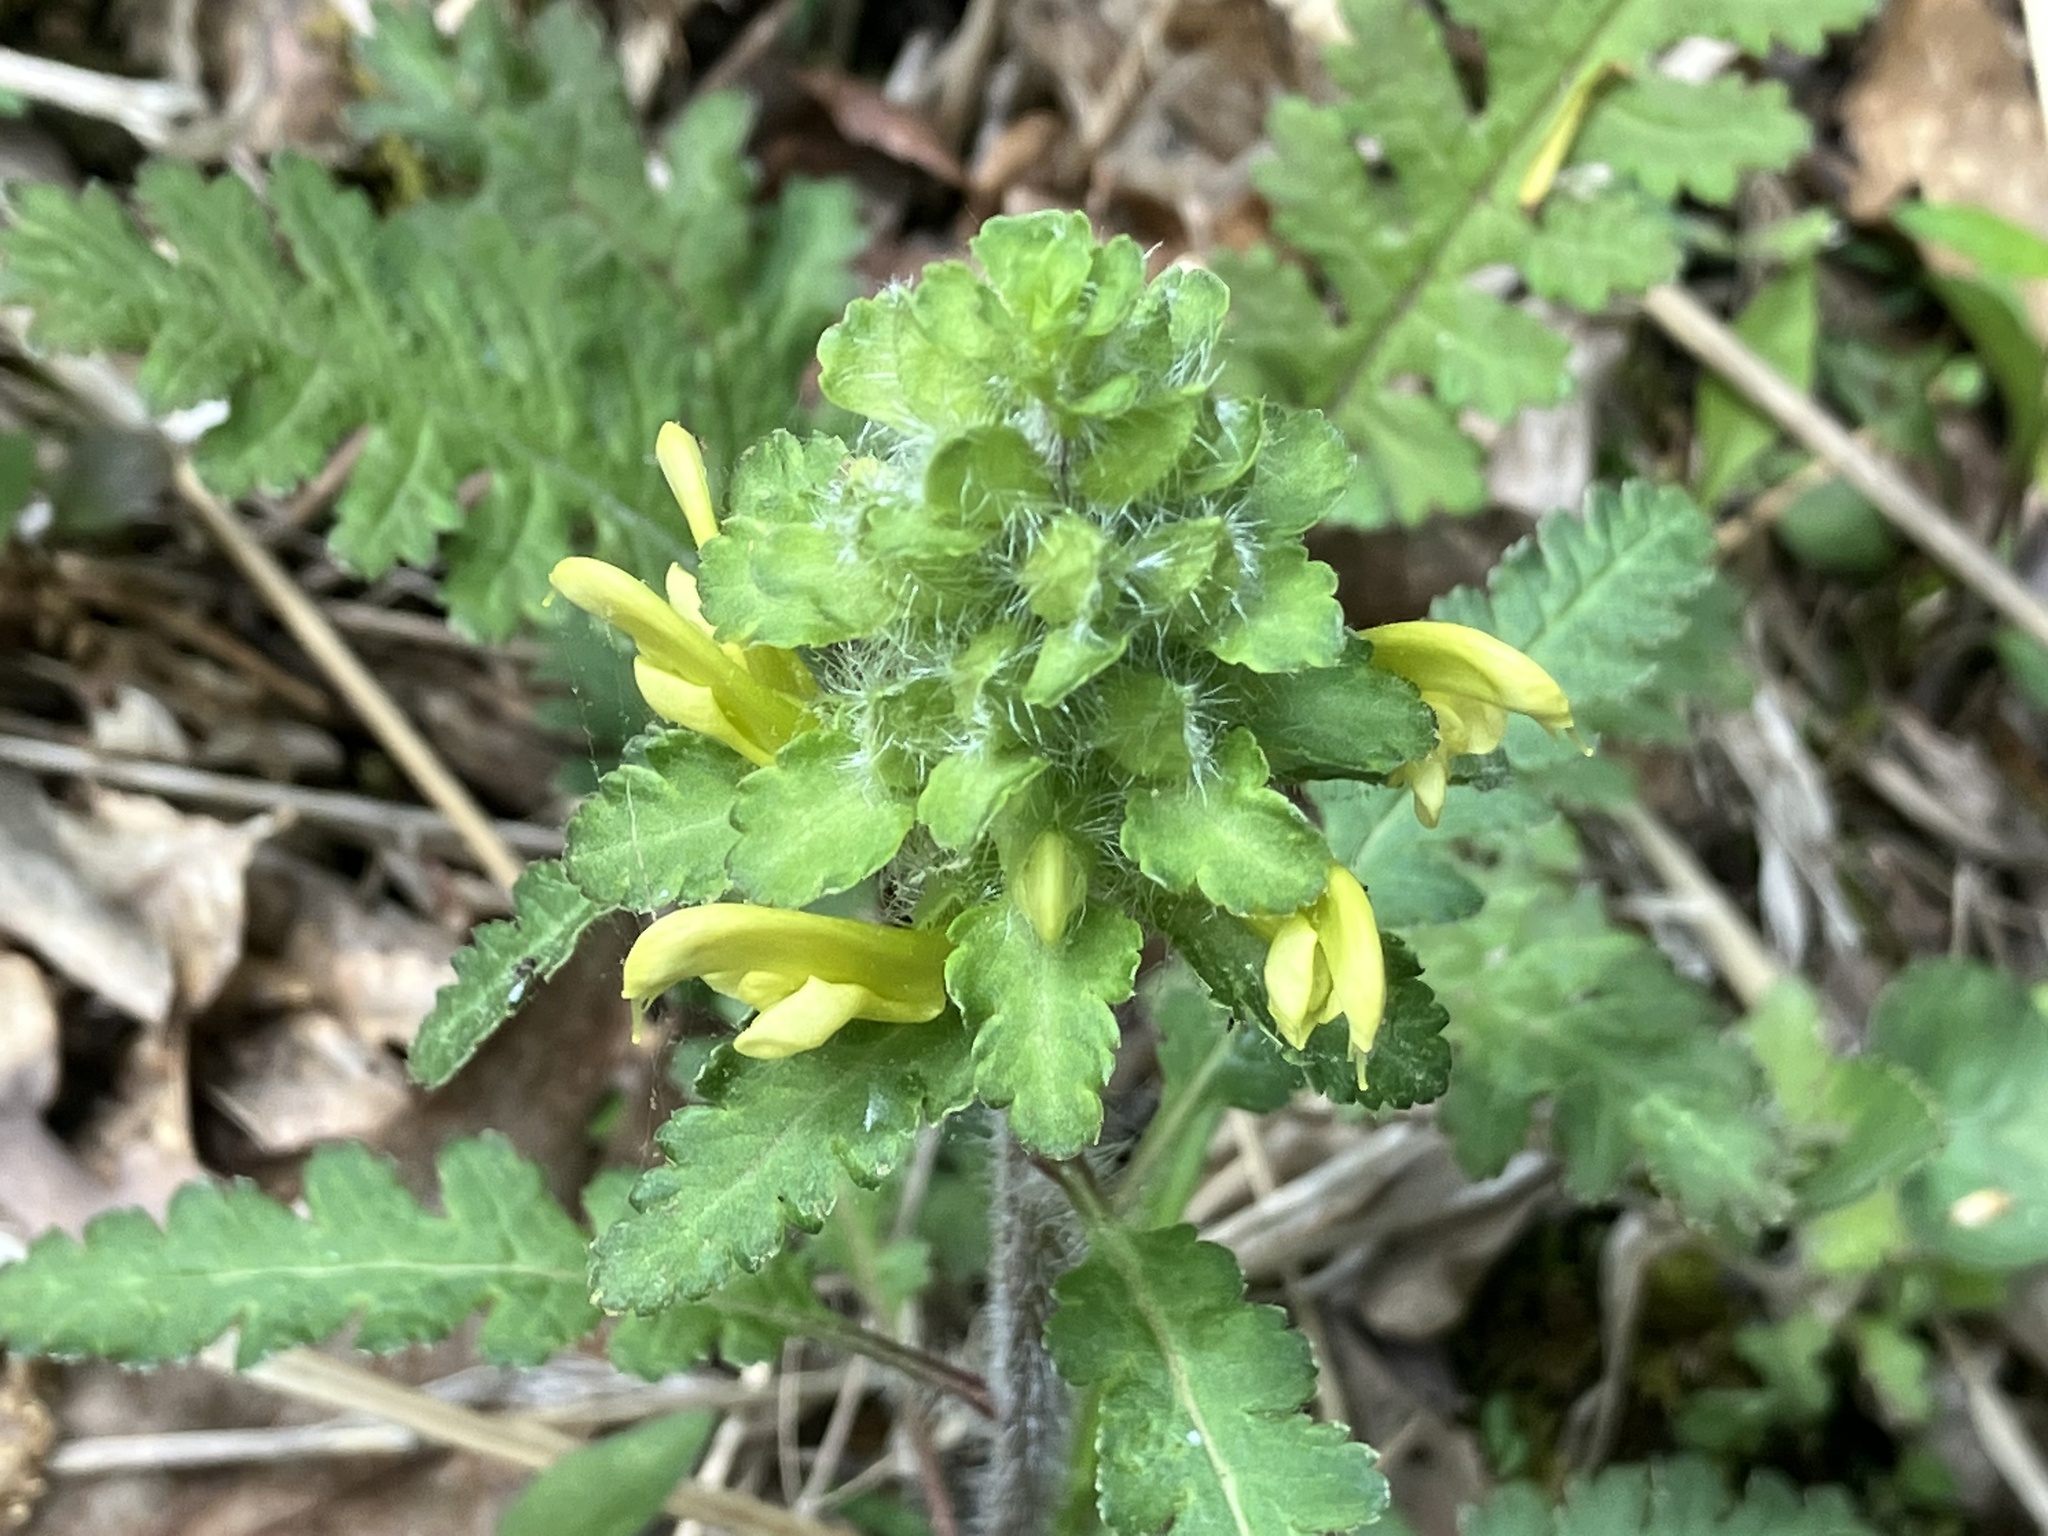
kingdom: Plantae
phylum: Tracheophyta
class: Magnoliopsida
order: Lamiales
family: Orobanchaceae
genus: Pedicularis
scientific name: Pedicularis canadensis
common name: Early lousewort
